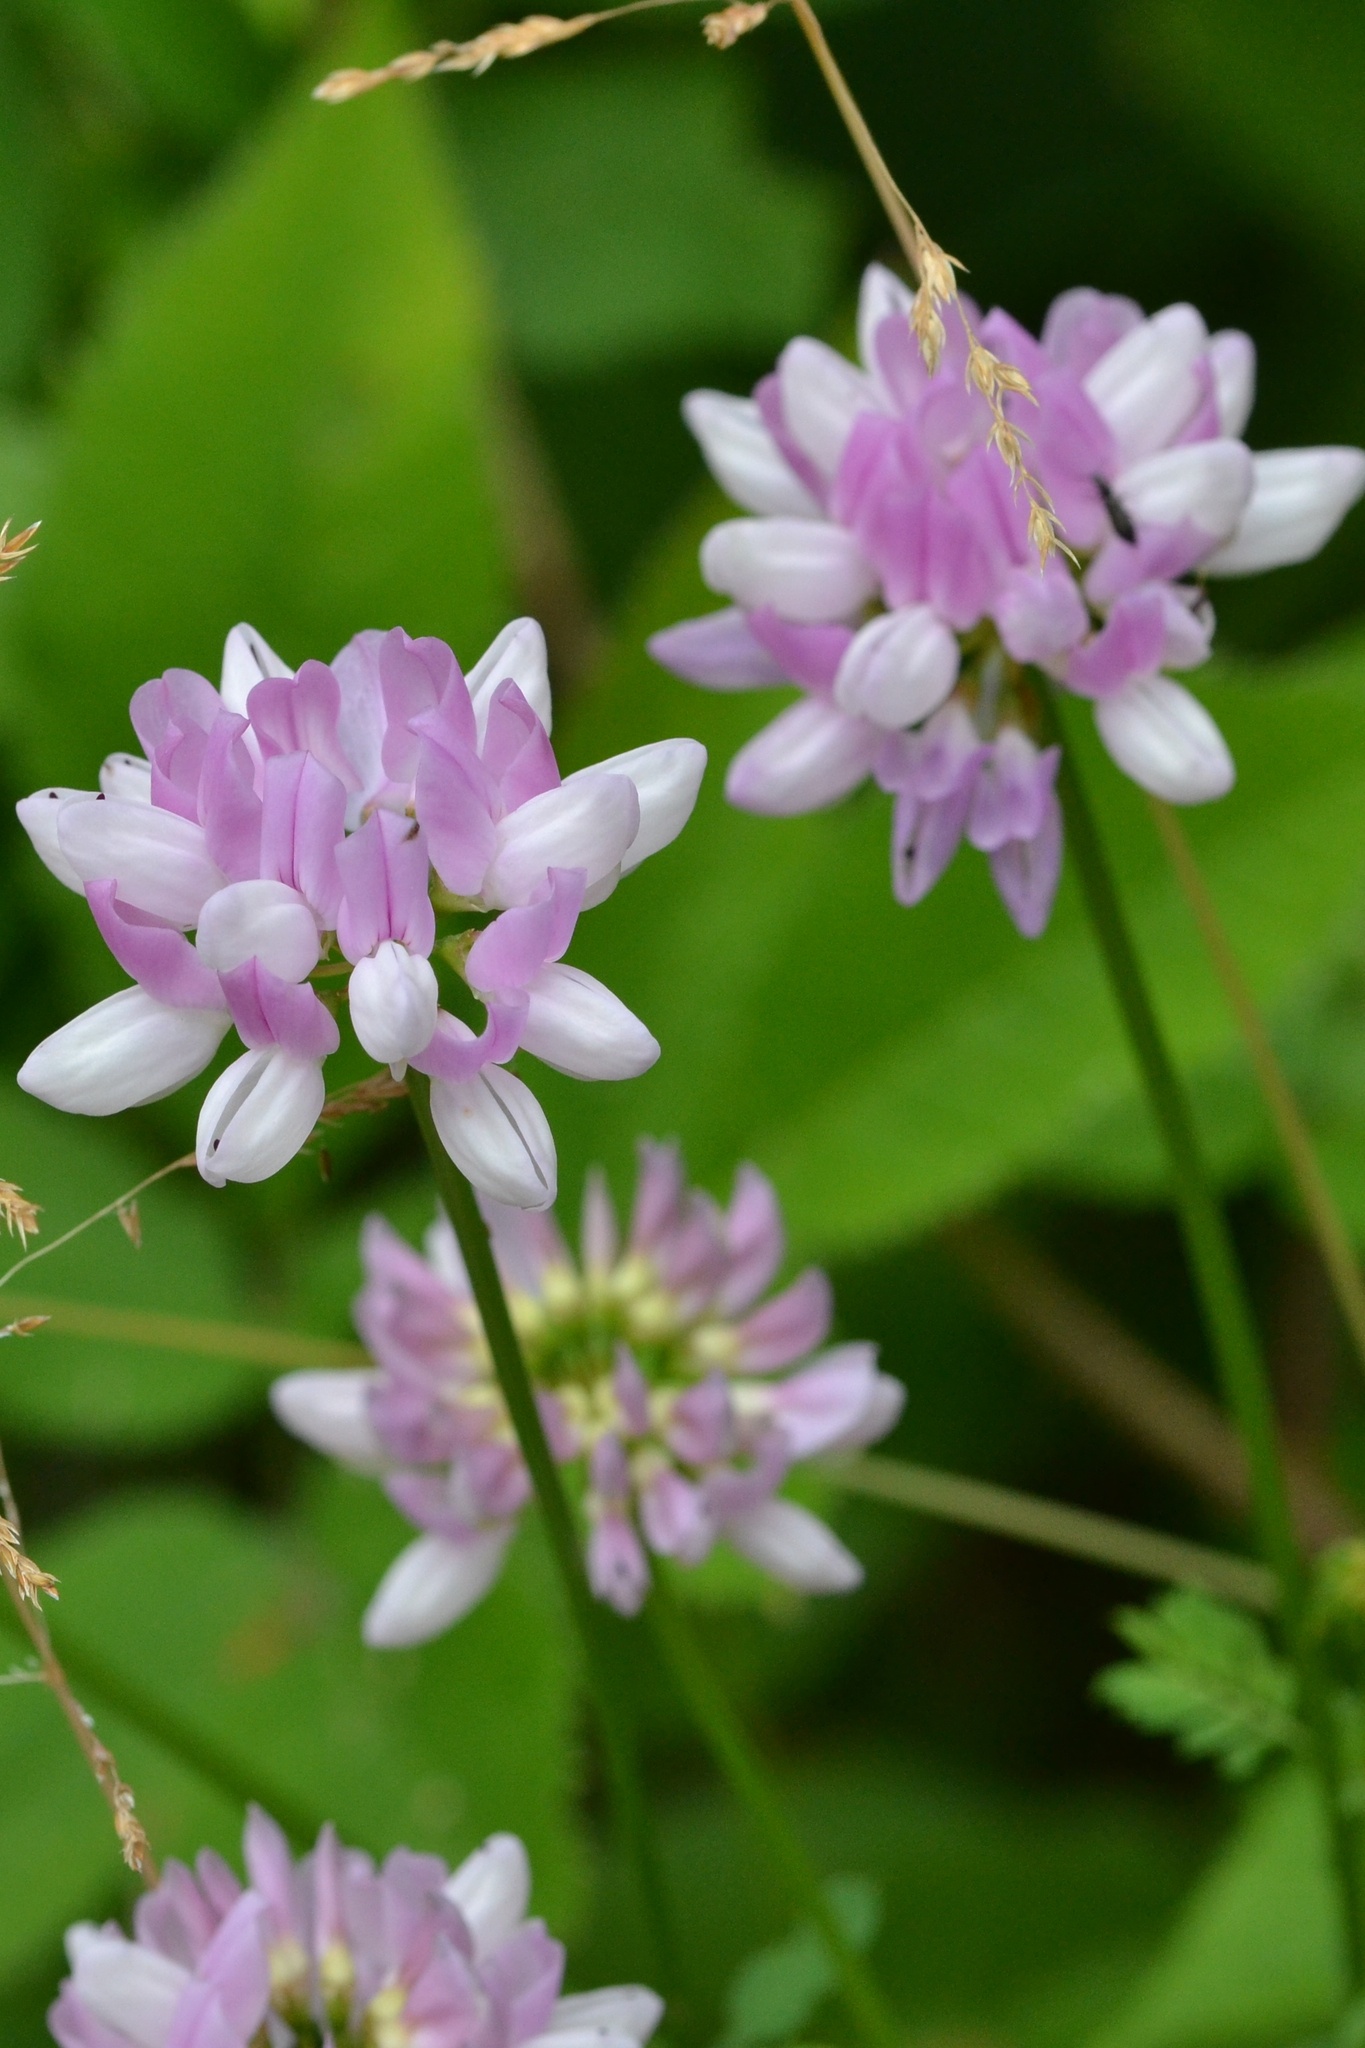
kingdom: Plantae
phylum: Tracheophyta
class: Magnoliopsida
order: Fabales
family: Fabaceae
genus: Coronilla
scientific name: Coronilla varia
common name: Crownvetch
